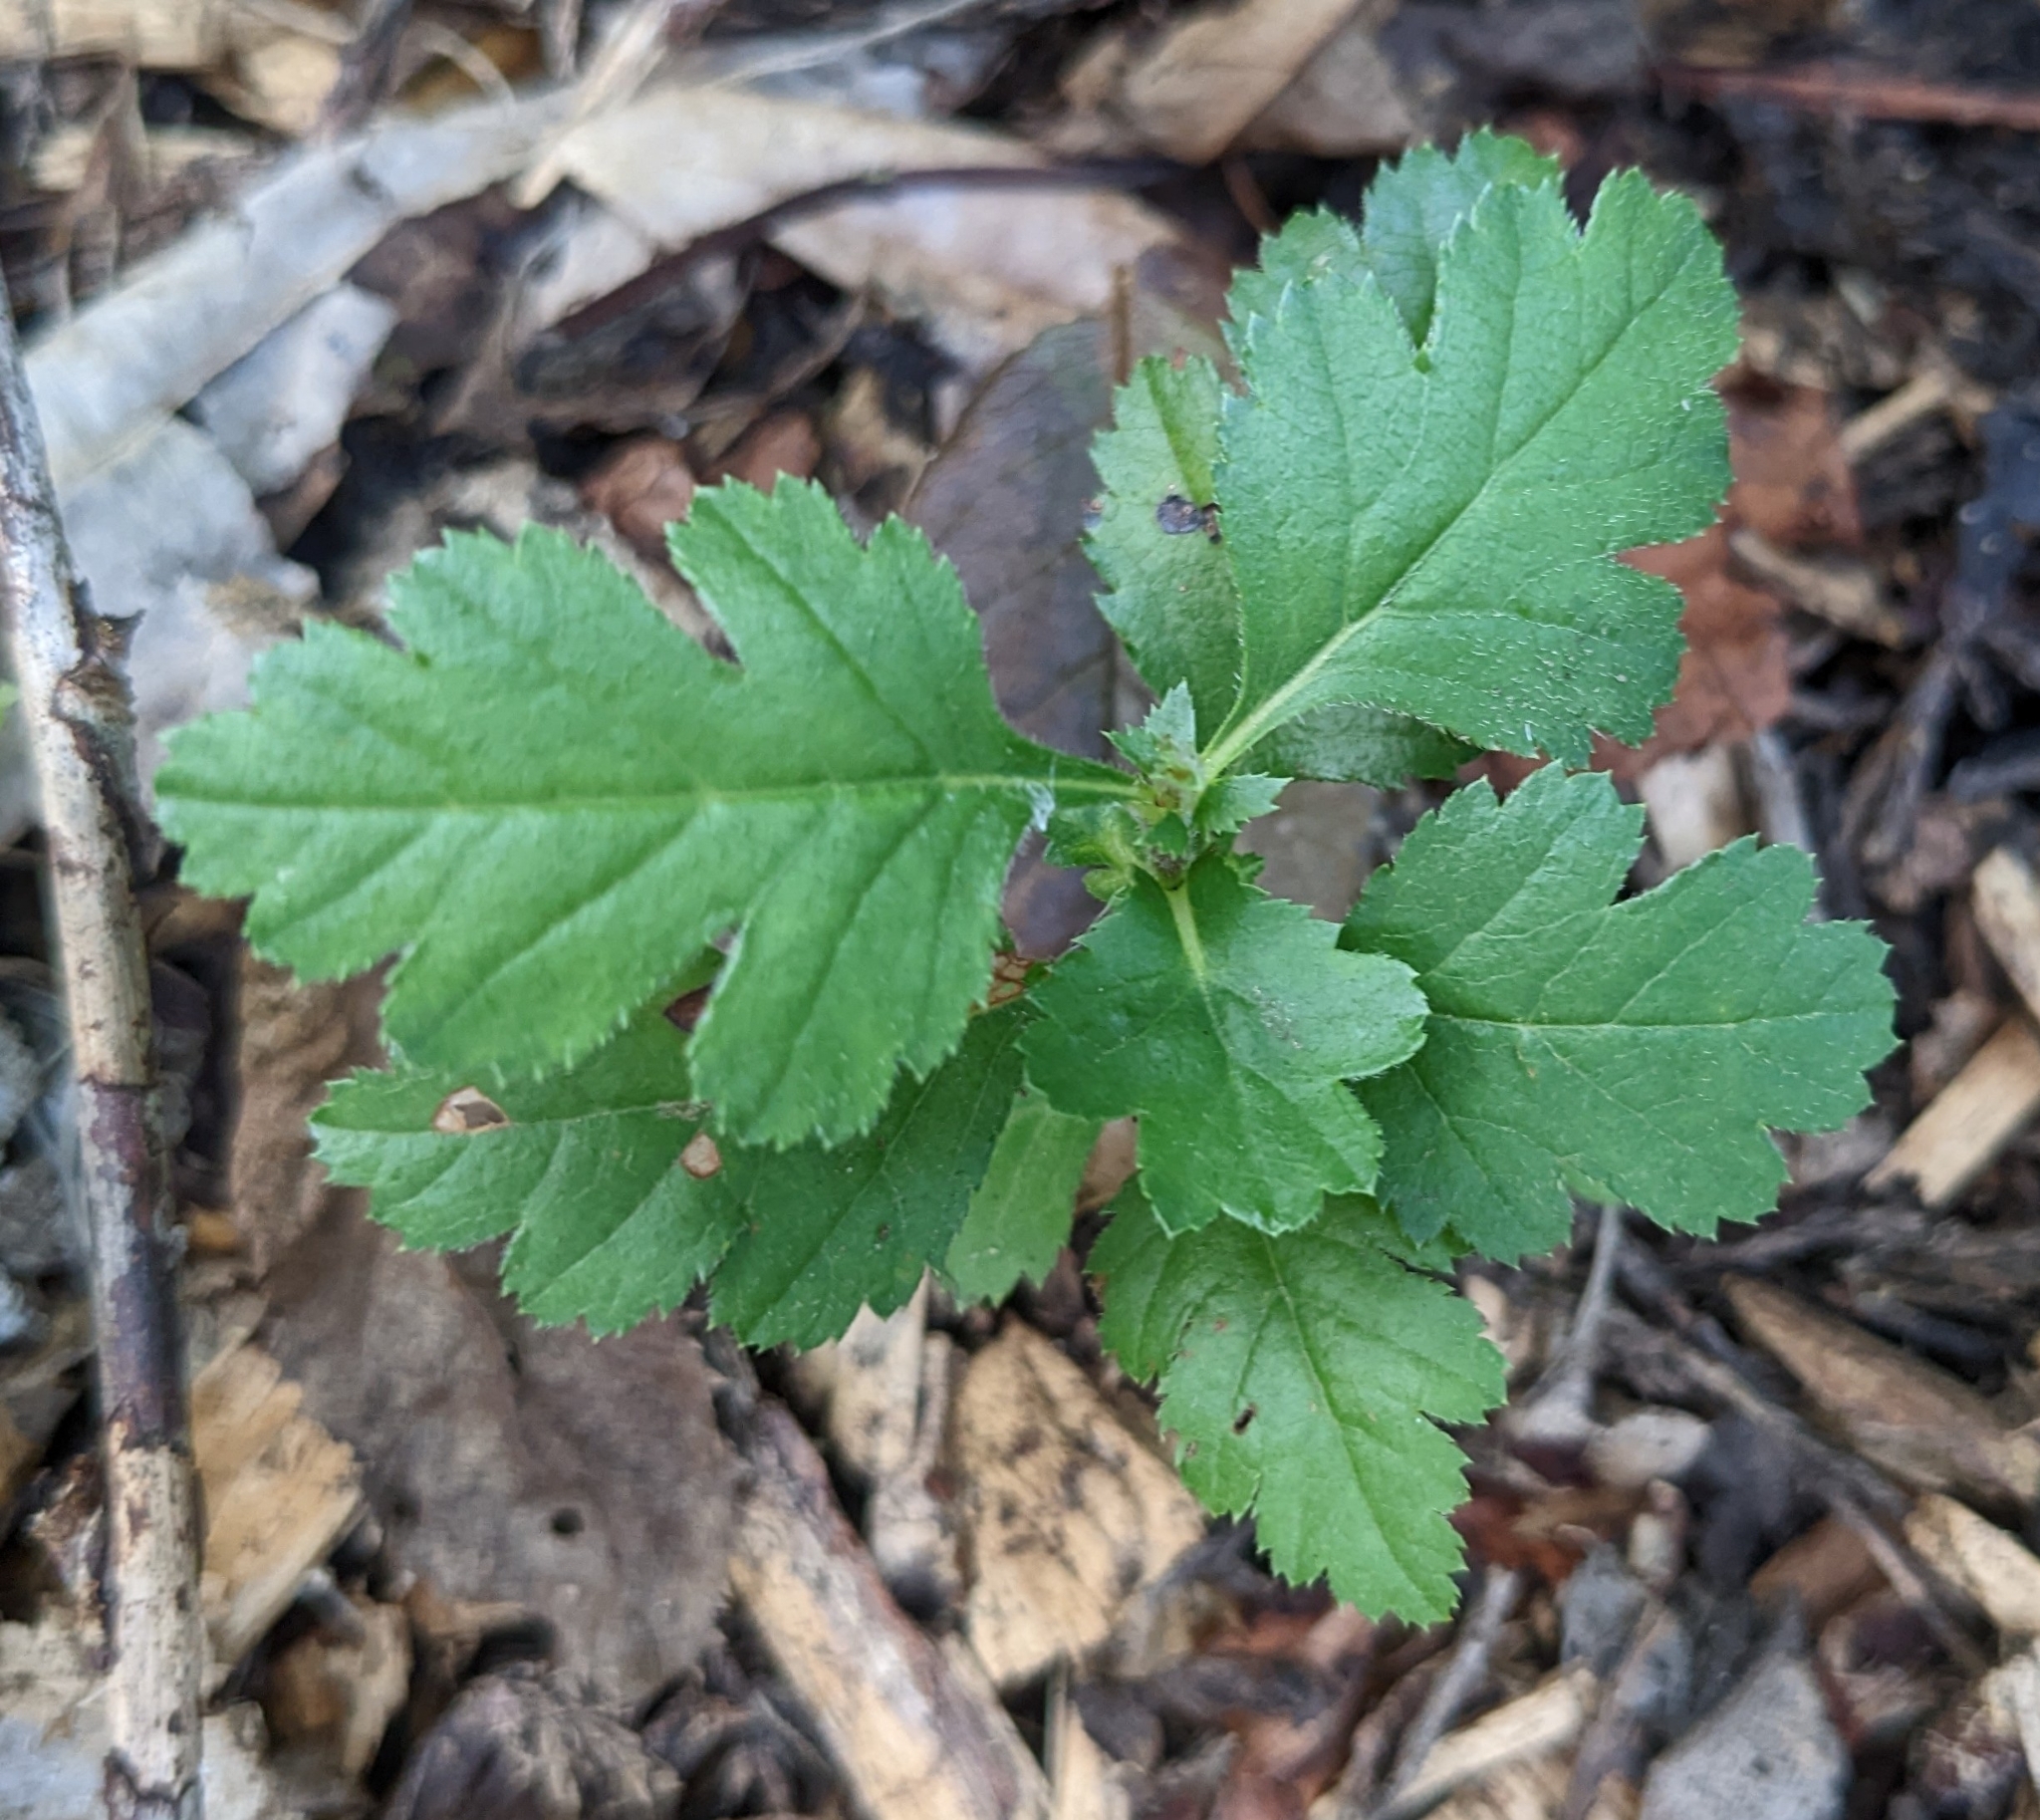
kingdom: Plantae
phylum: Tracheophyta
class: Magnoliopsida
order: Rosales
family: Rosaceae
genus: Crataegus
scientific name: Crataegus monogyna
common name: Hawthorn
